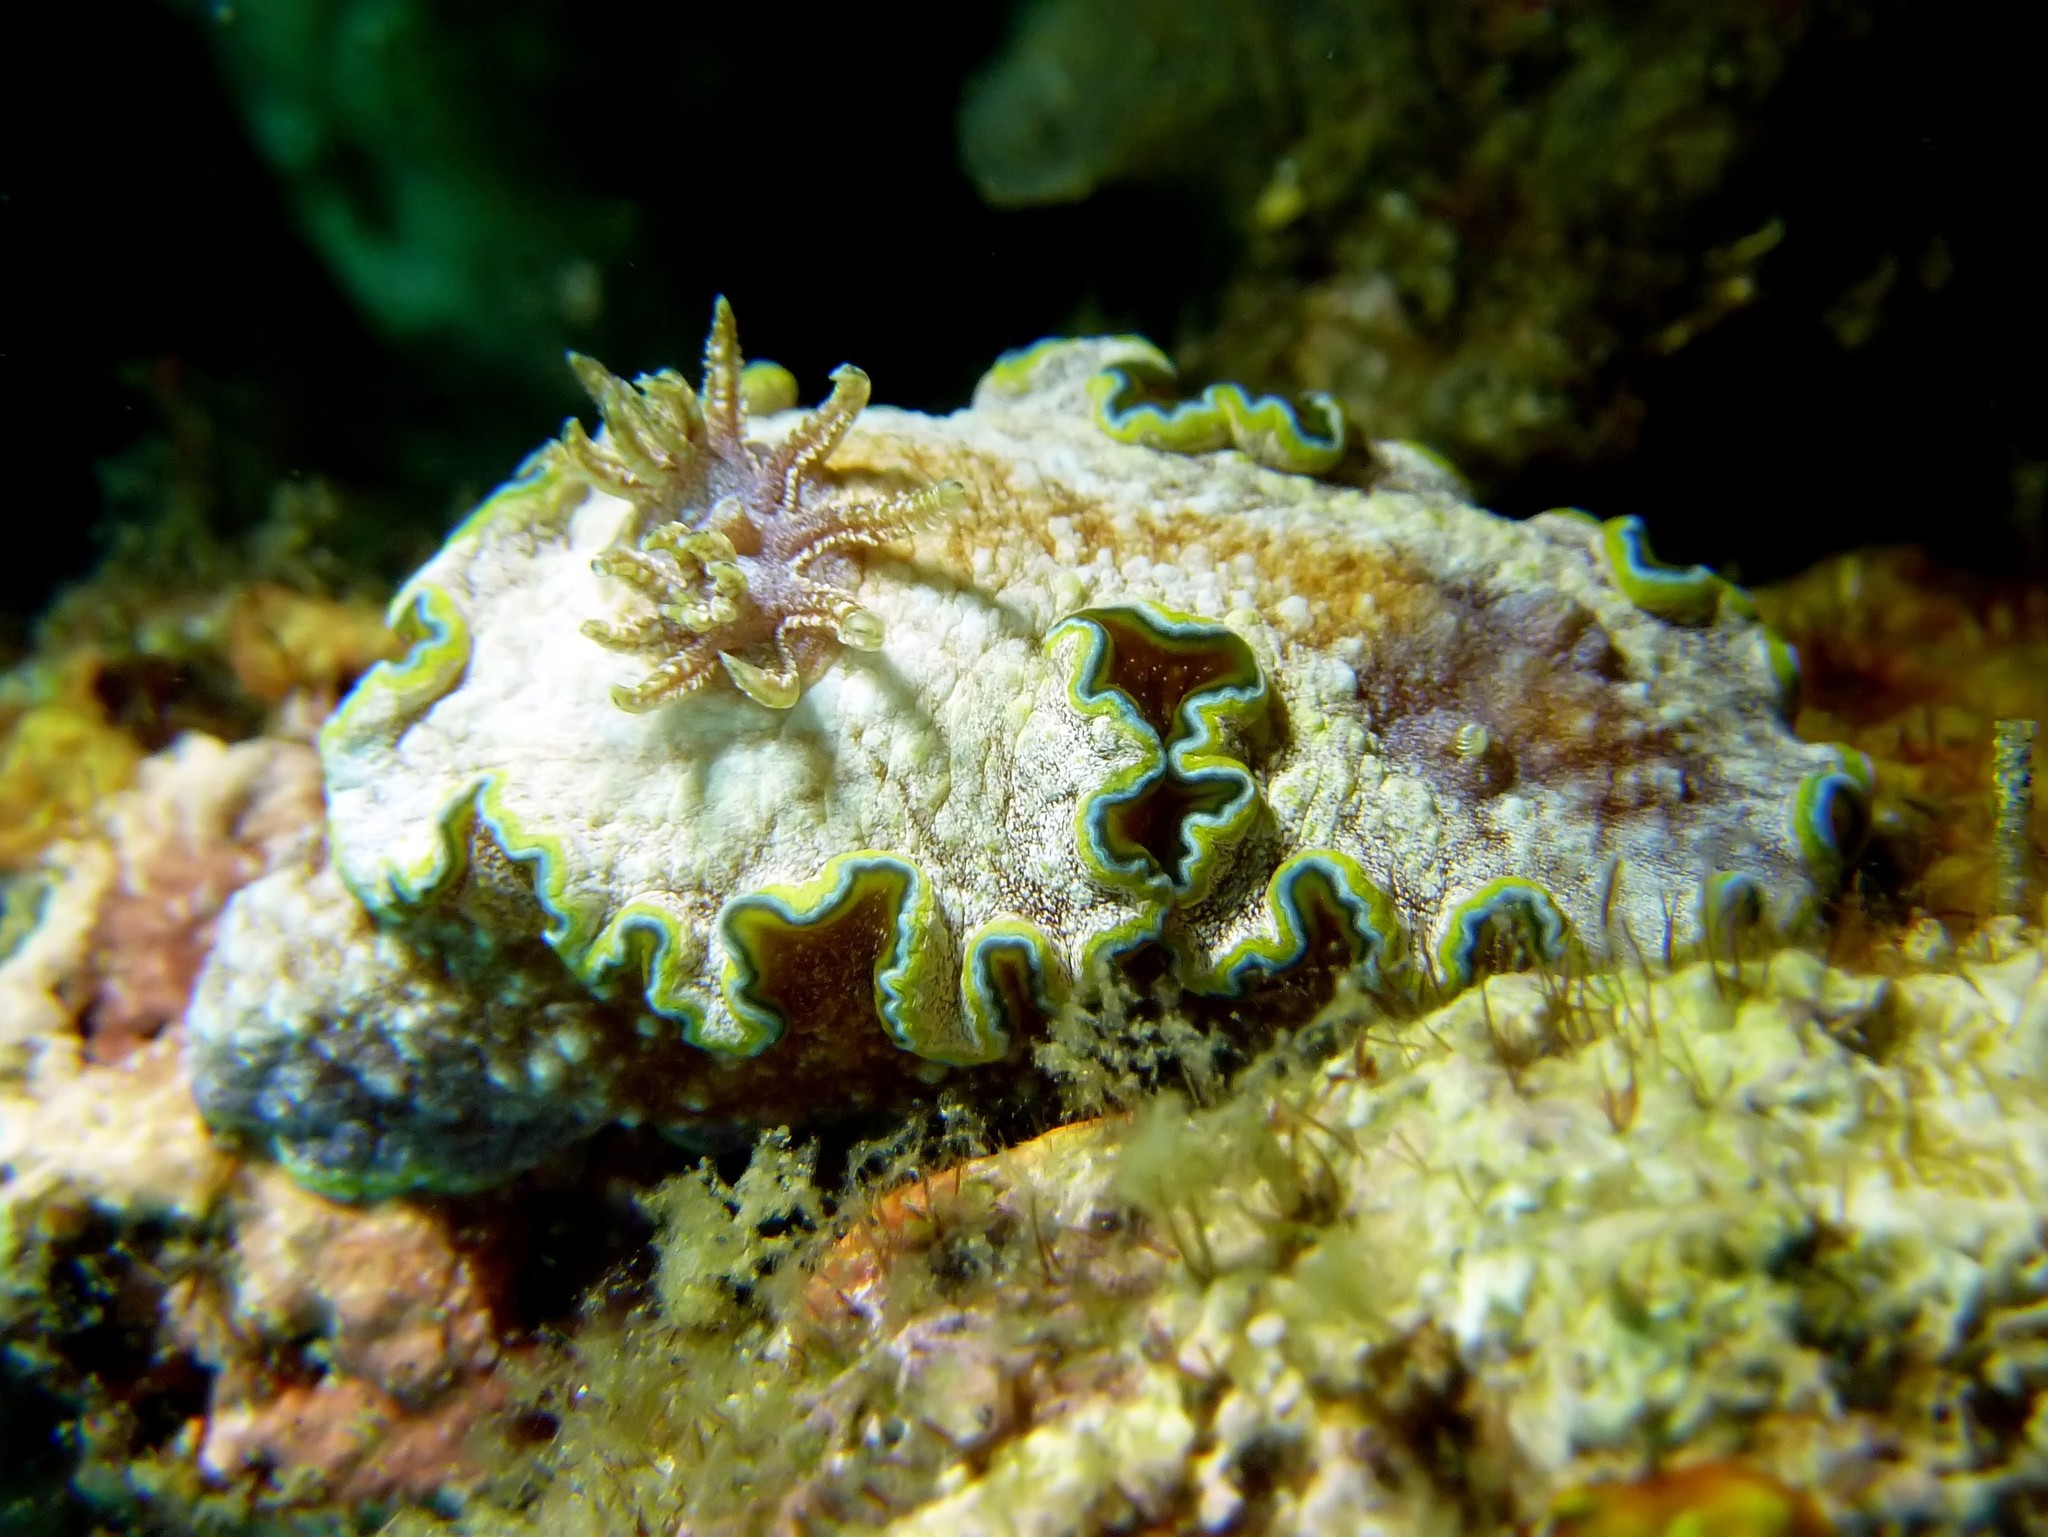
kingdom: Animalia
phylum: Mollusca
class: Gastropoda
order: Nudibranchia
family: Chromodorididae
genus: Glossodoris
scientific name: Glossodoris acosti
